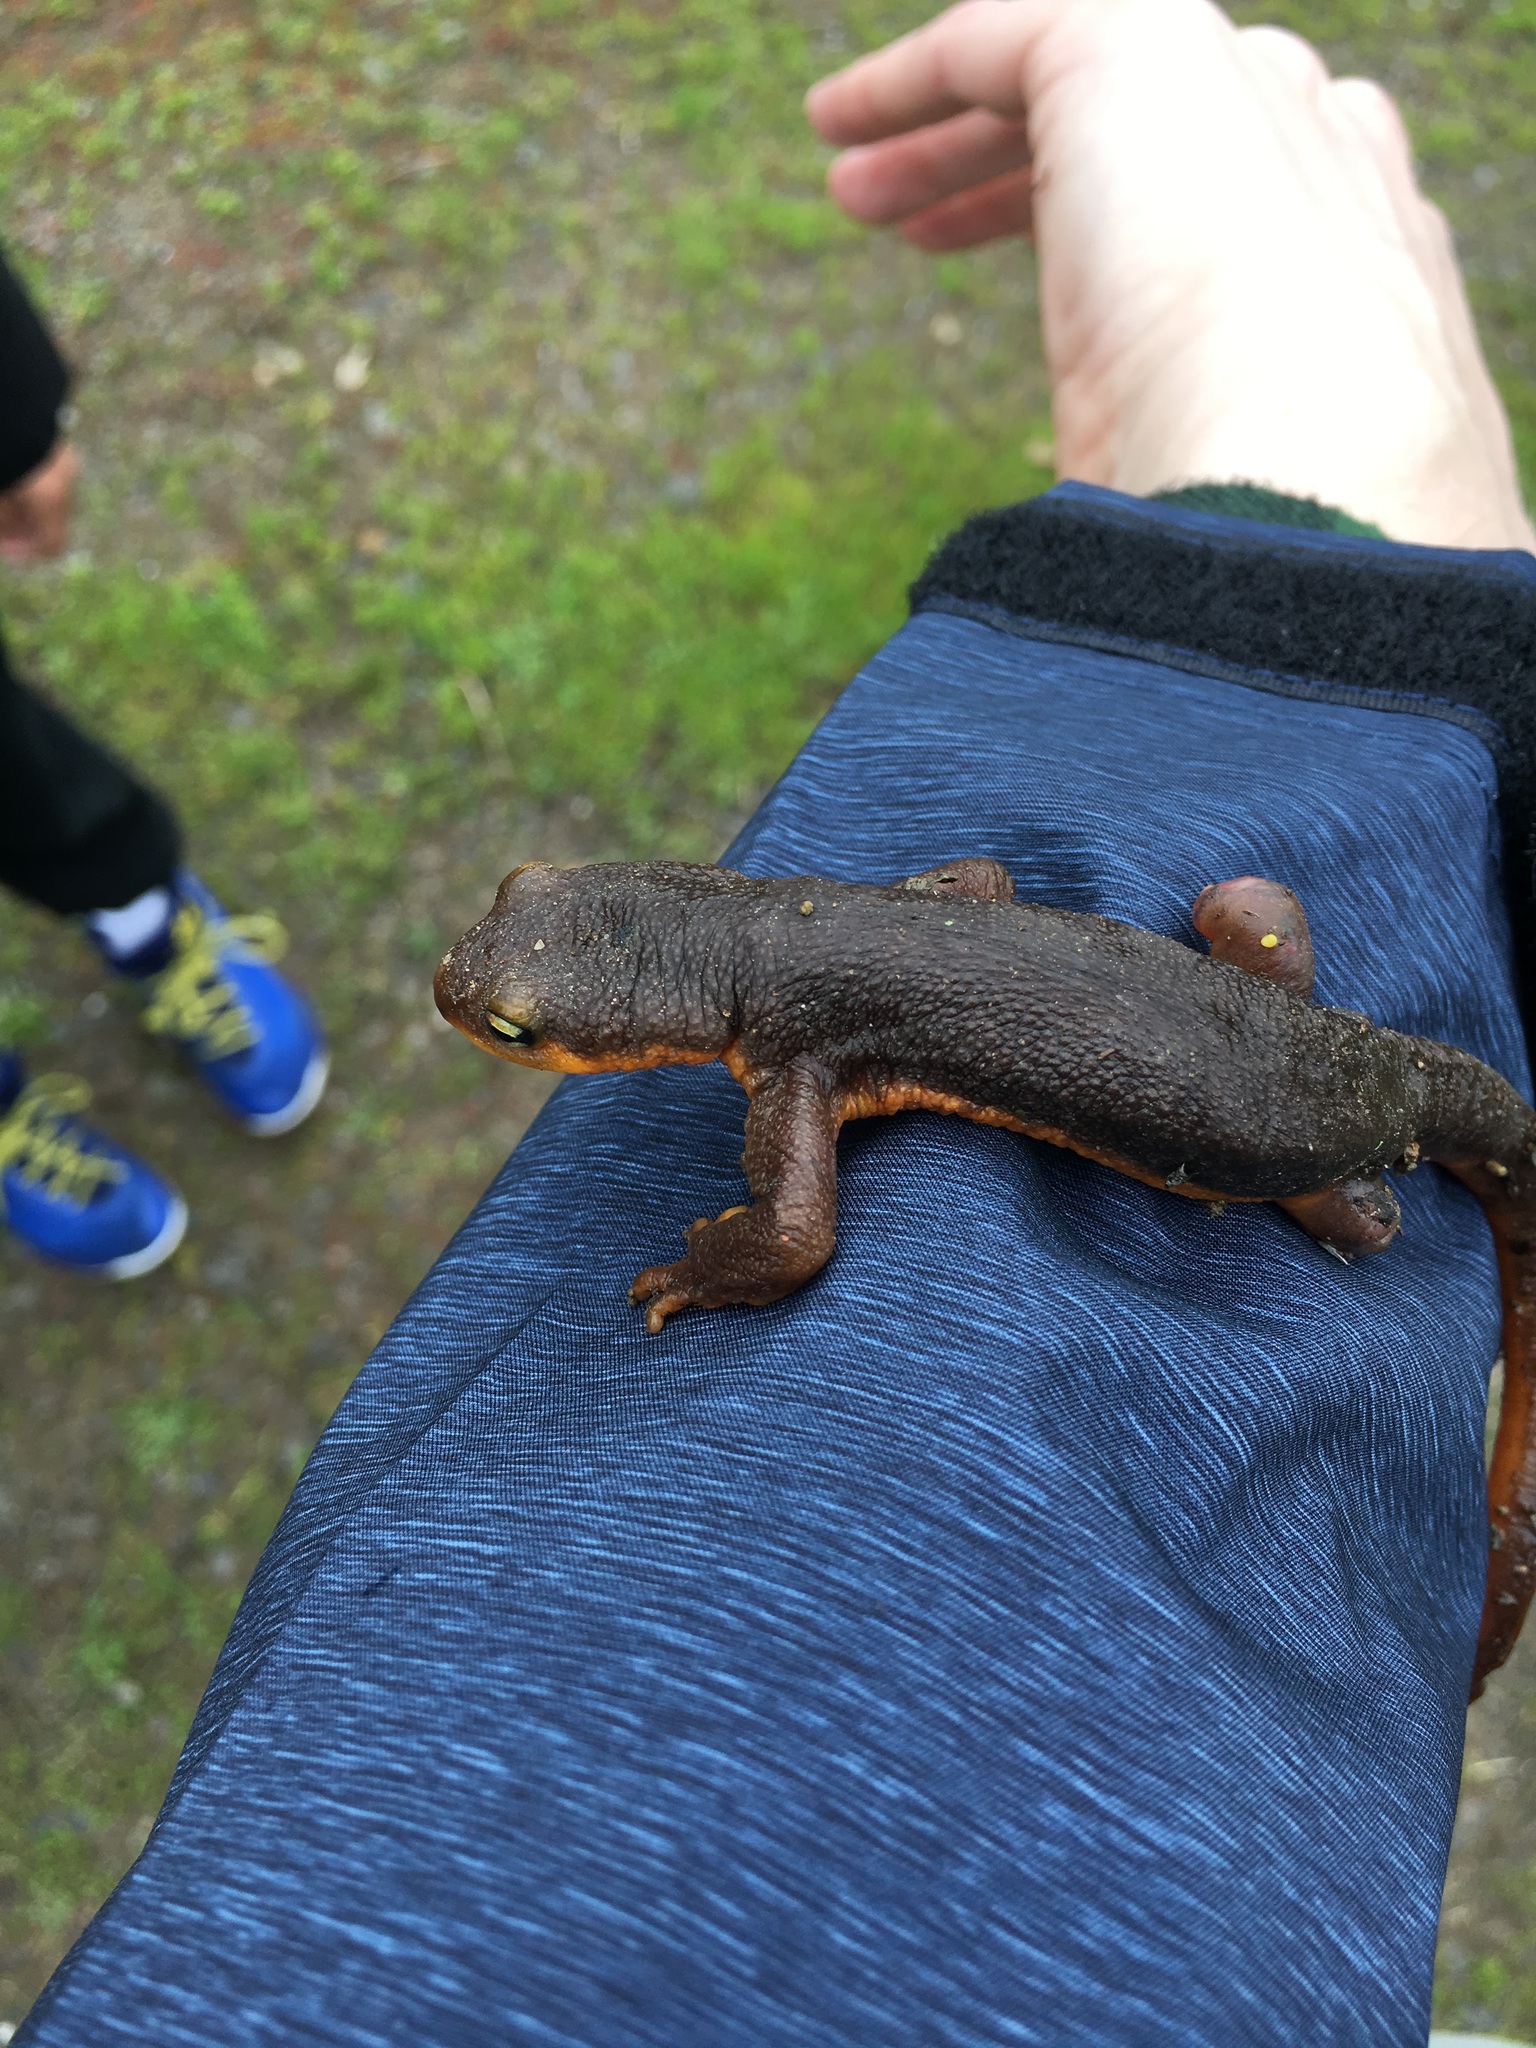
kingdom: Animalia
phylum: Chordata
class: Amphibia
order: Caudata
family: Salamandridae
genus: Taricha
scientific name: Taricha torosa
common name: California newt
